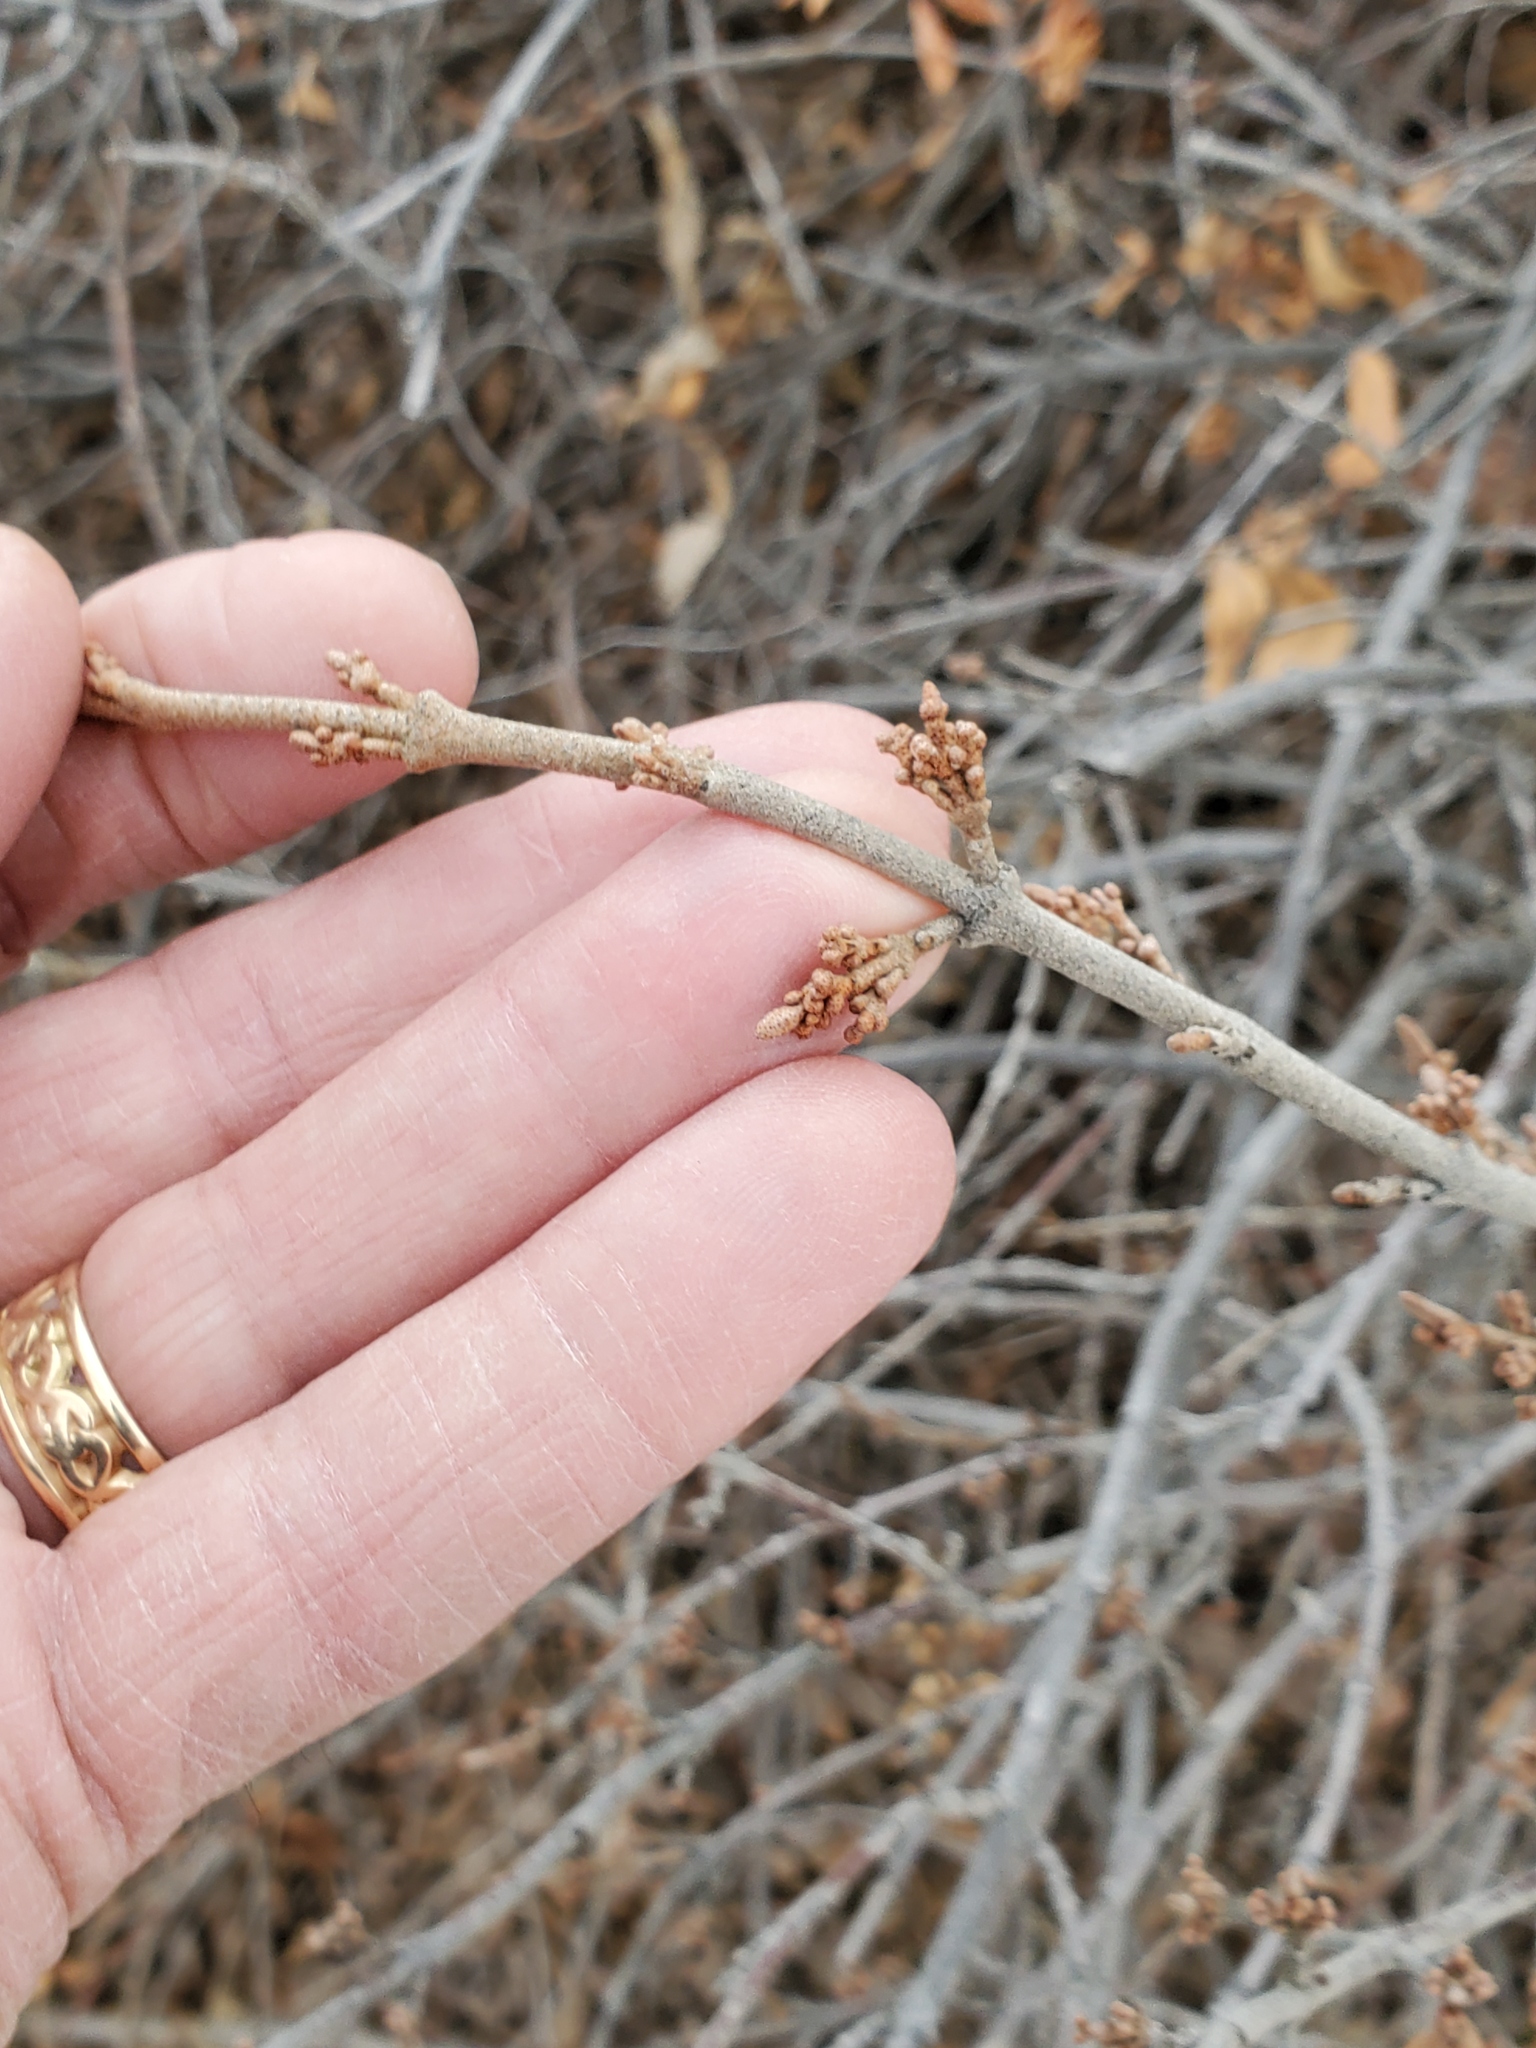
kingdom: Plantae
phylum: Tracheophyta
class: Magnoliopsida
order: Rosales
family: Elaeagnaceae
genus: Shepherdia
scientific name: Shepherdia canadensis
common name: Soapberry
